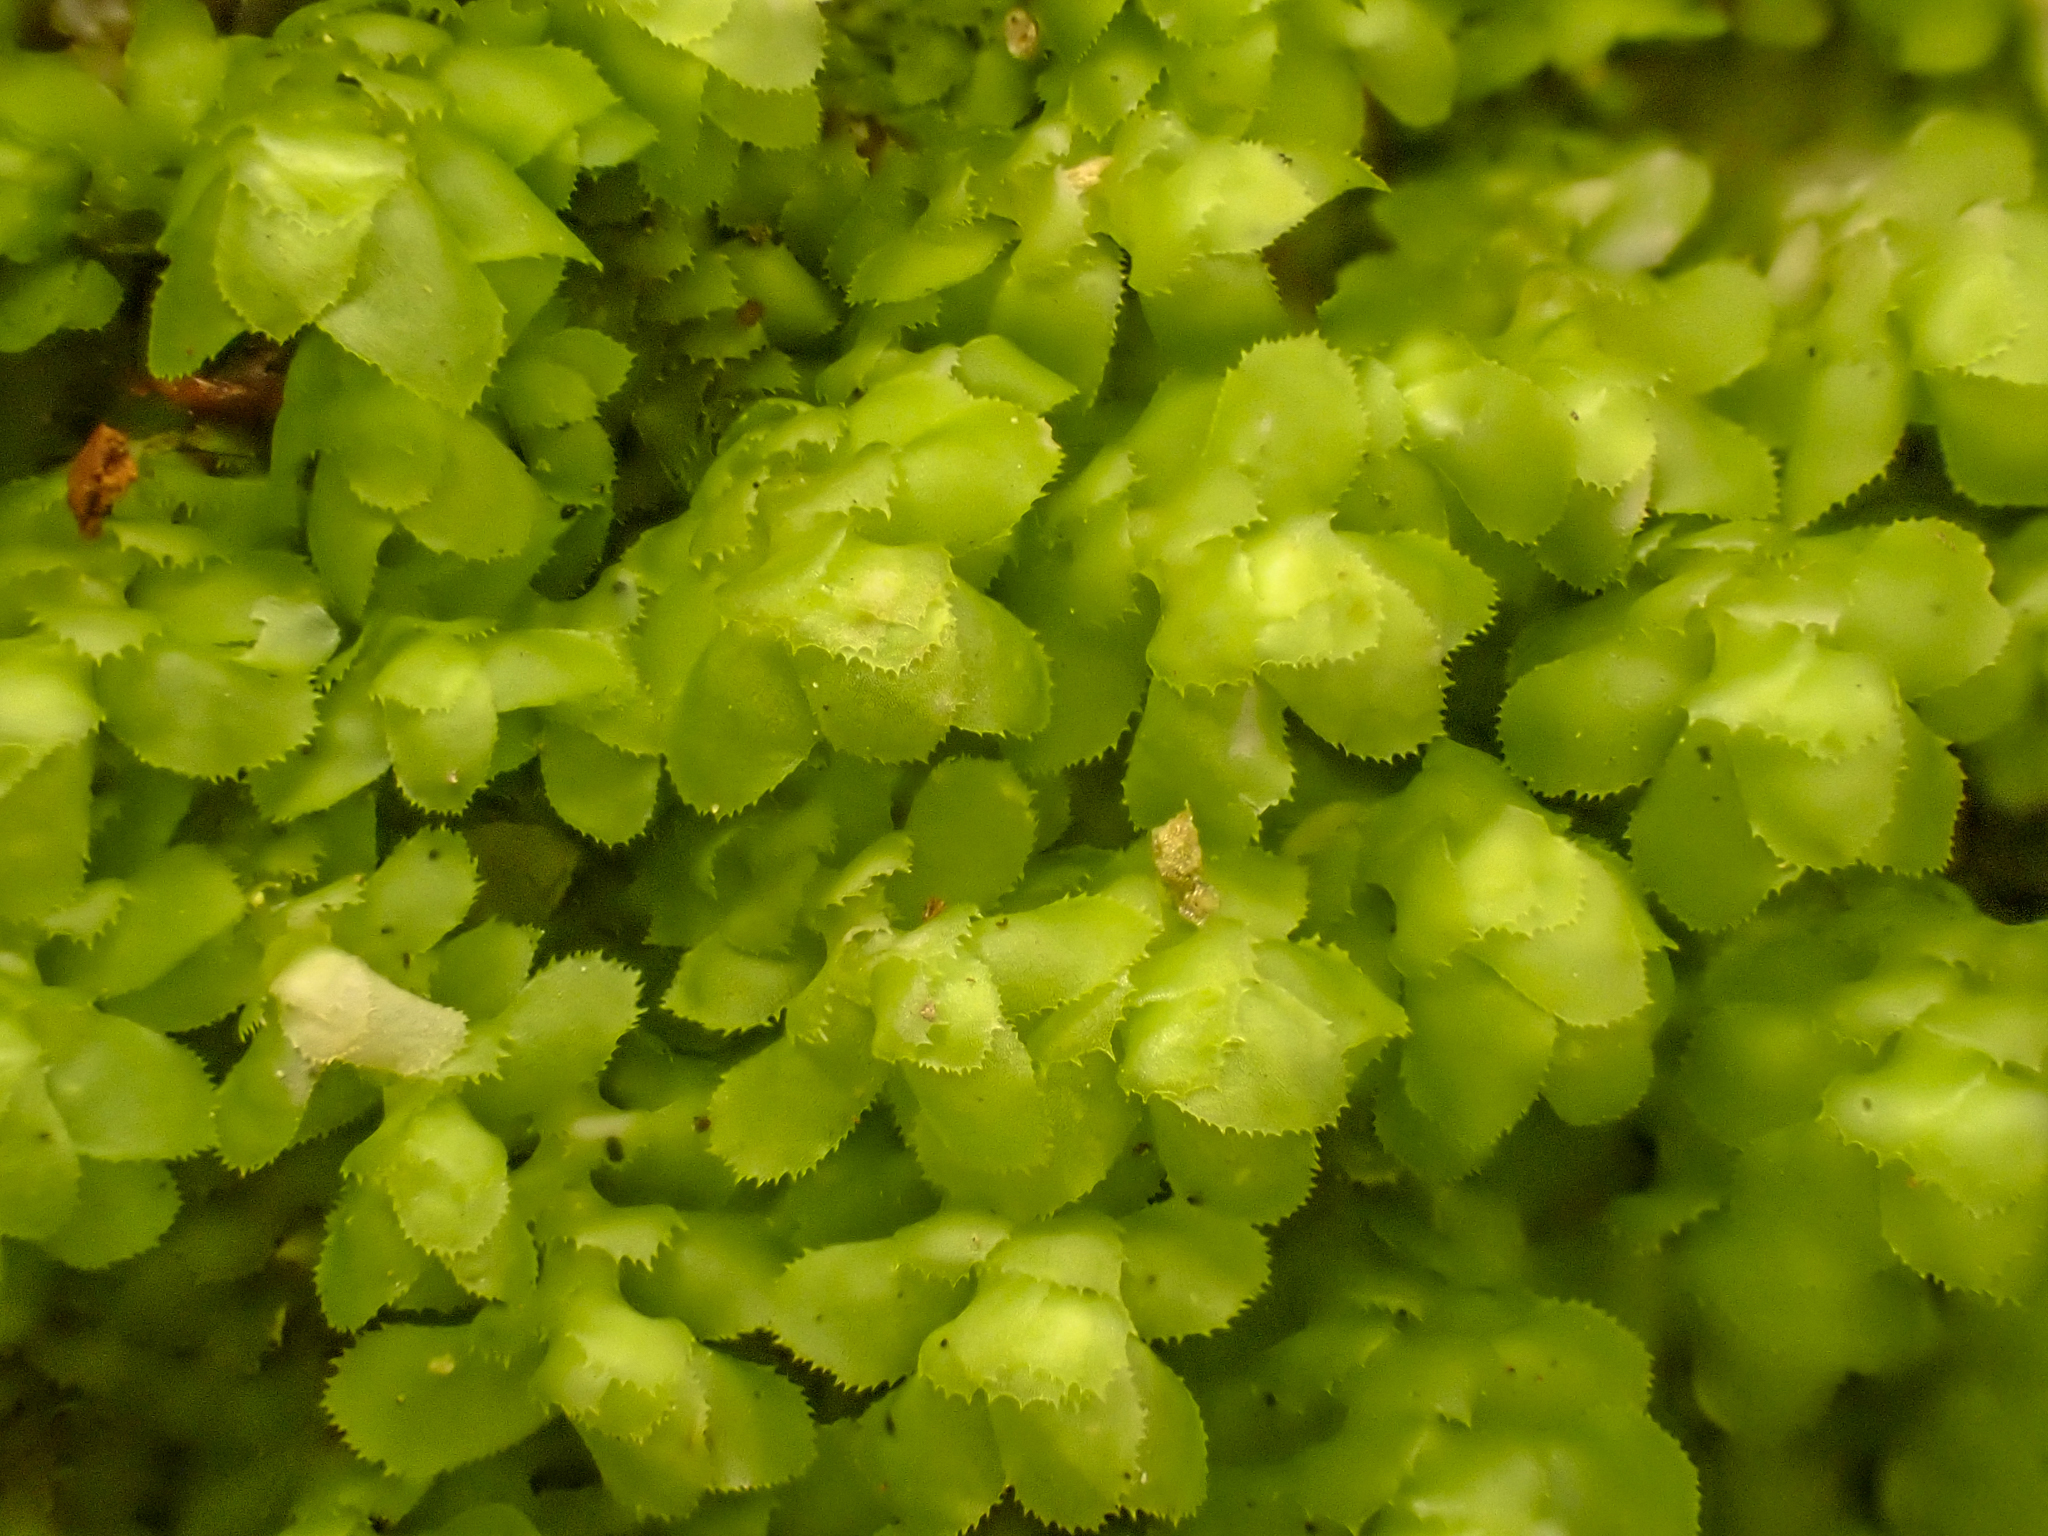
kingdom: Plantae
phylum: Marchantiophyta
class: Jungermanniopsida
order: Jungermanniales
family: Scapaniaceae
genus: Scapania
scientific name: Scapania bolanderi
